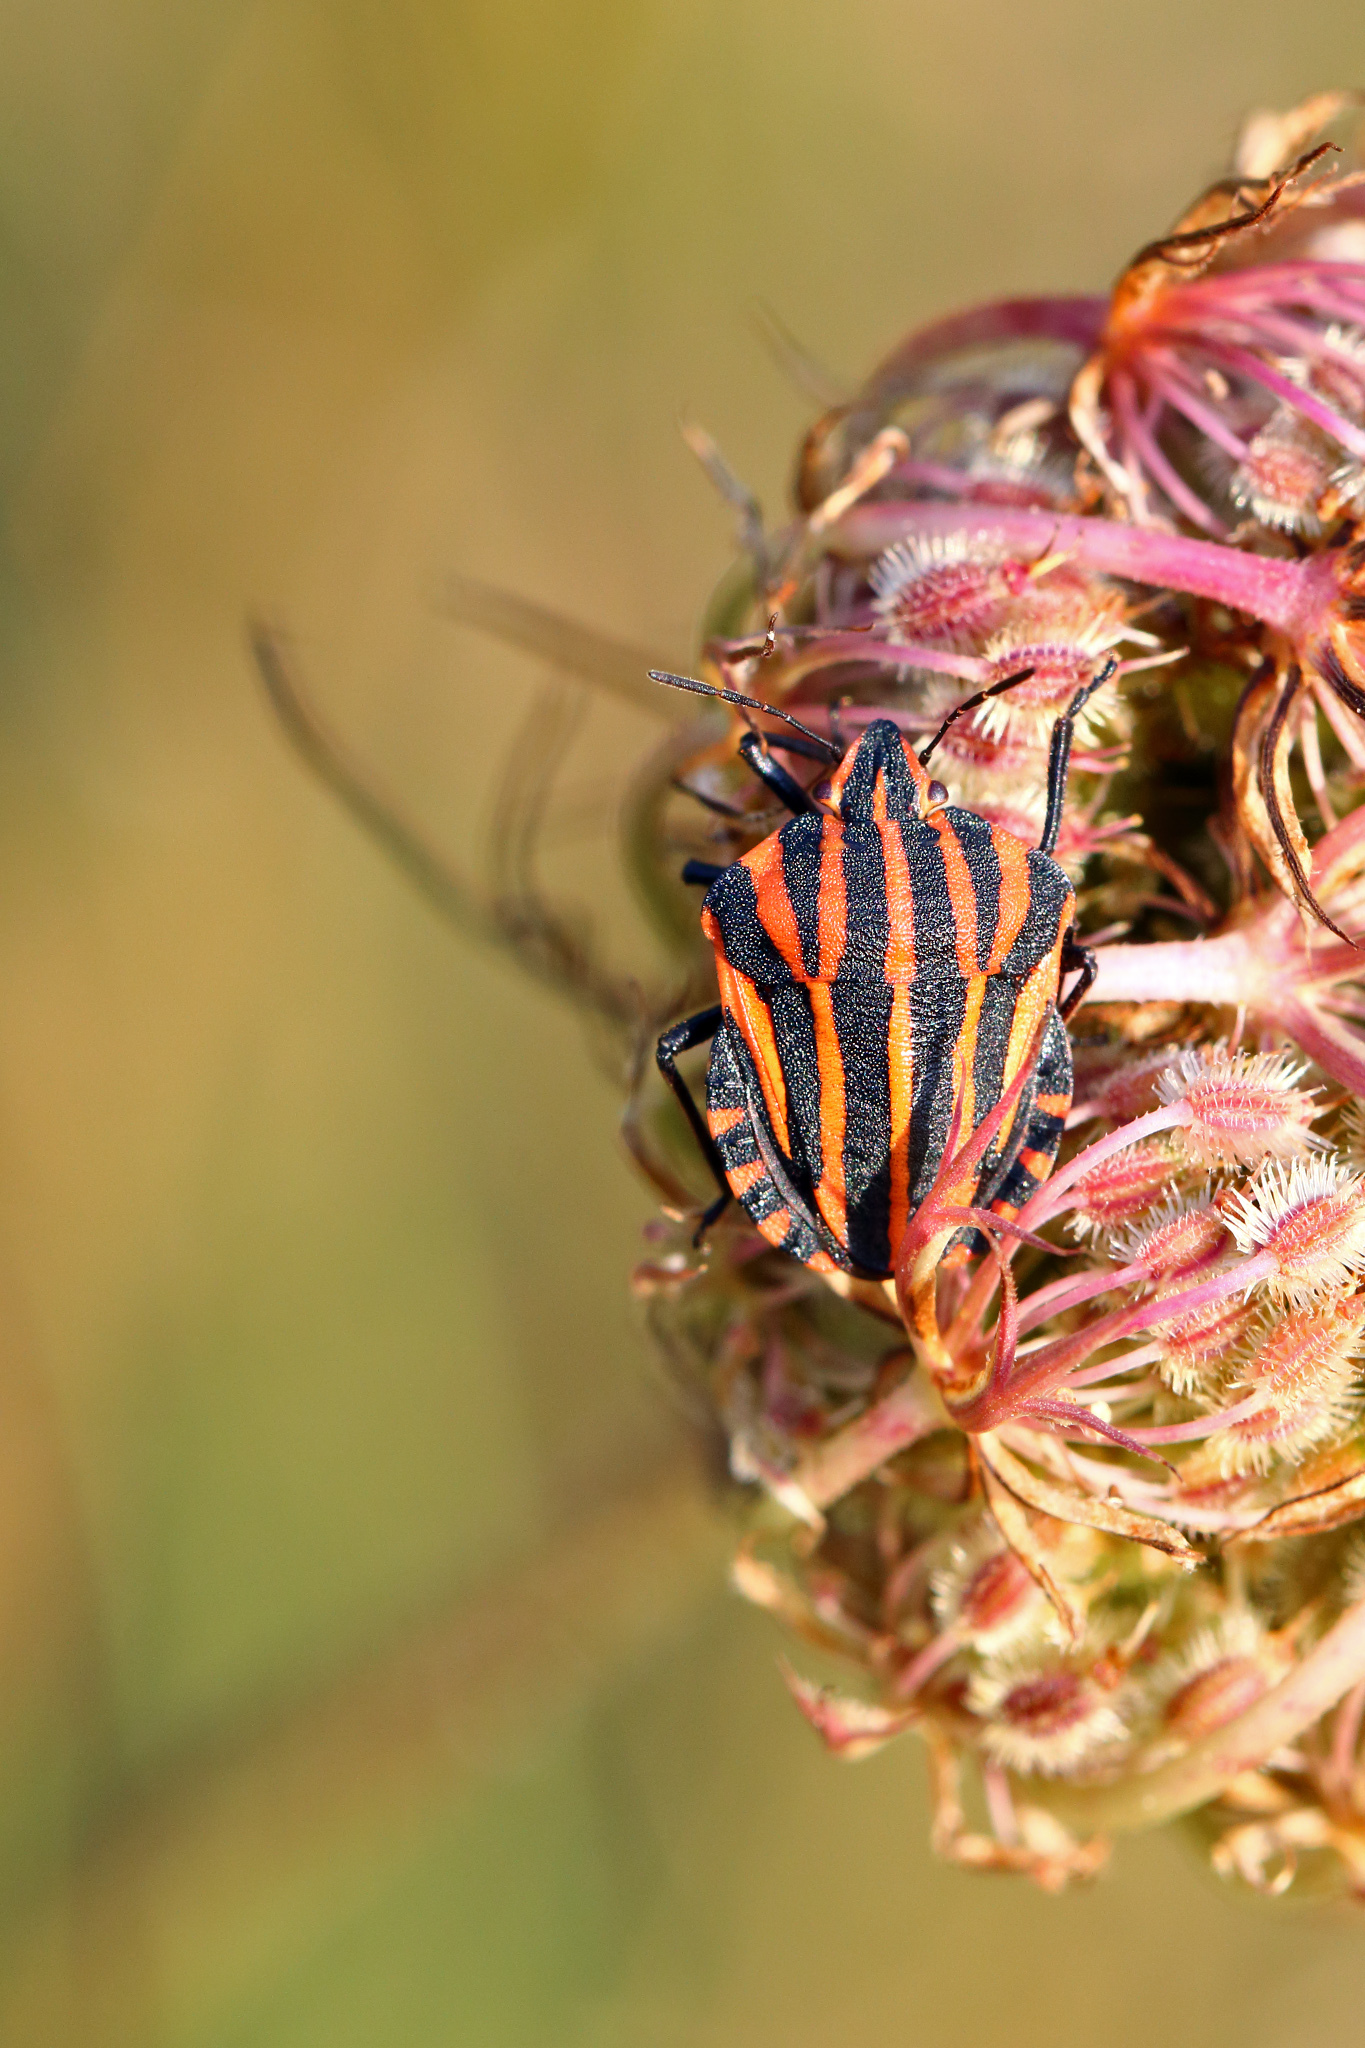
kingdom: Animalia
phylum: Arthropoda
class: Insecta
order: Hemiptera
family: Pentatomidae
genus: Graphosoma
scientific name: Graphosoma italicum
